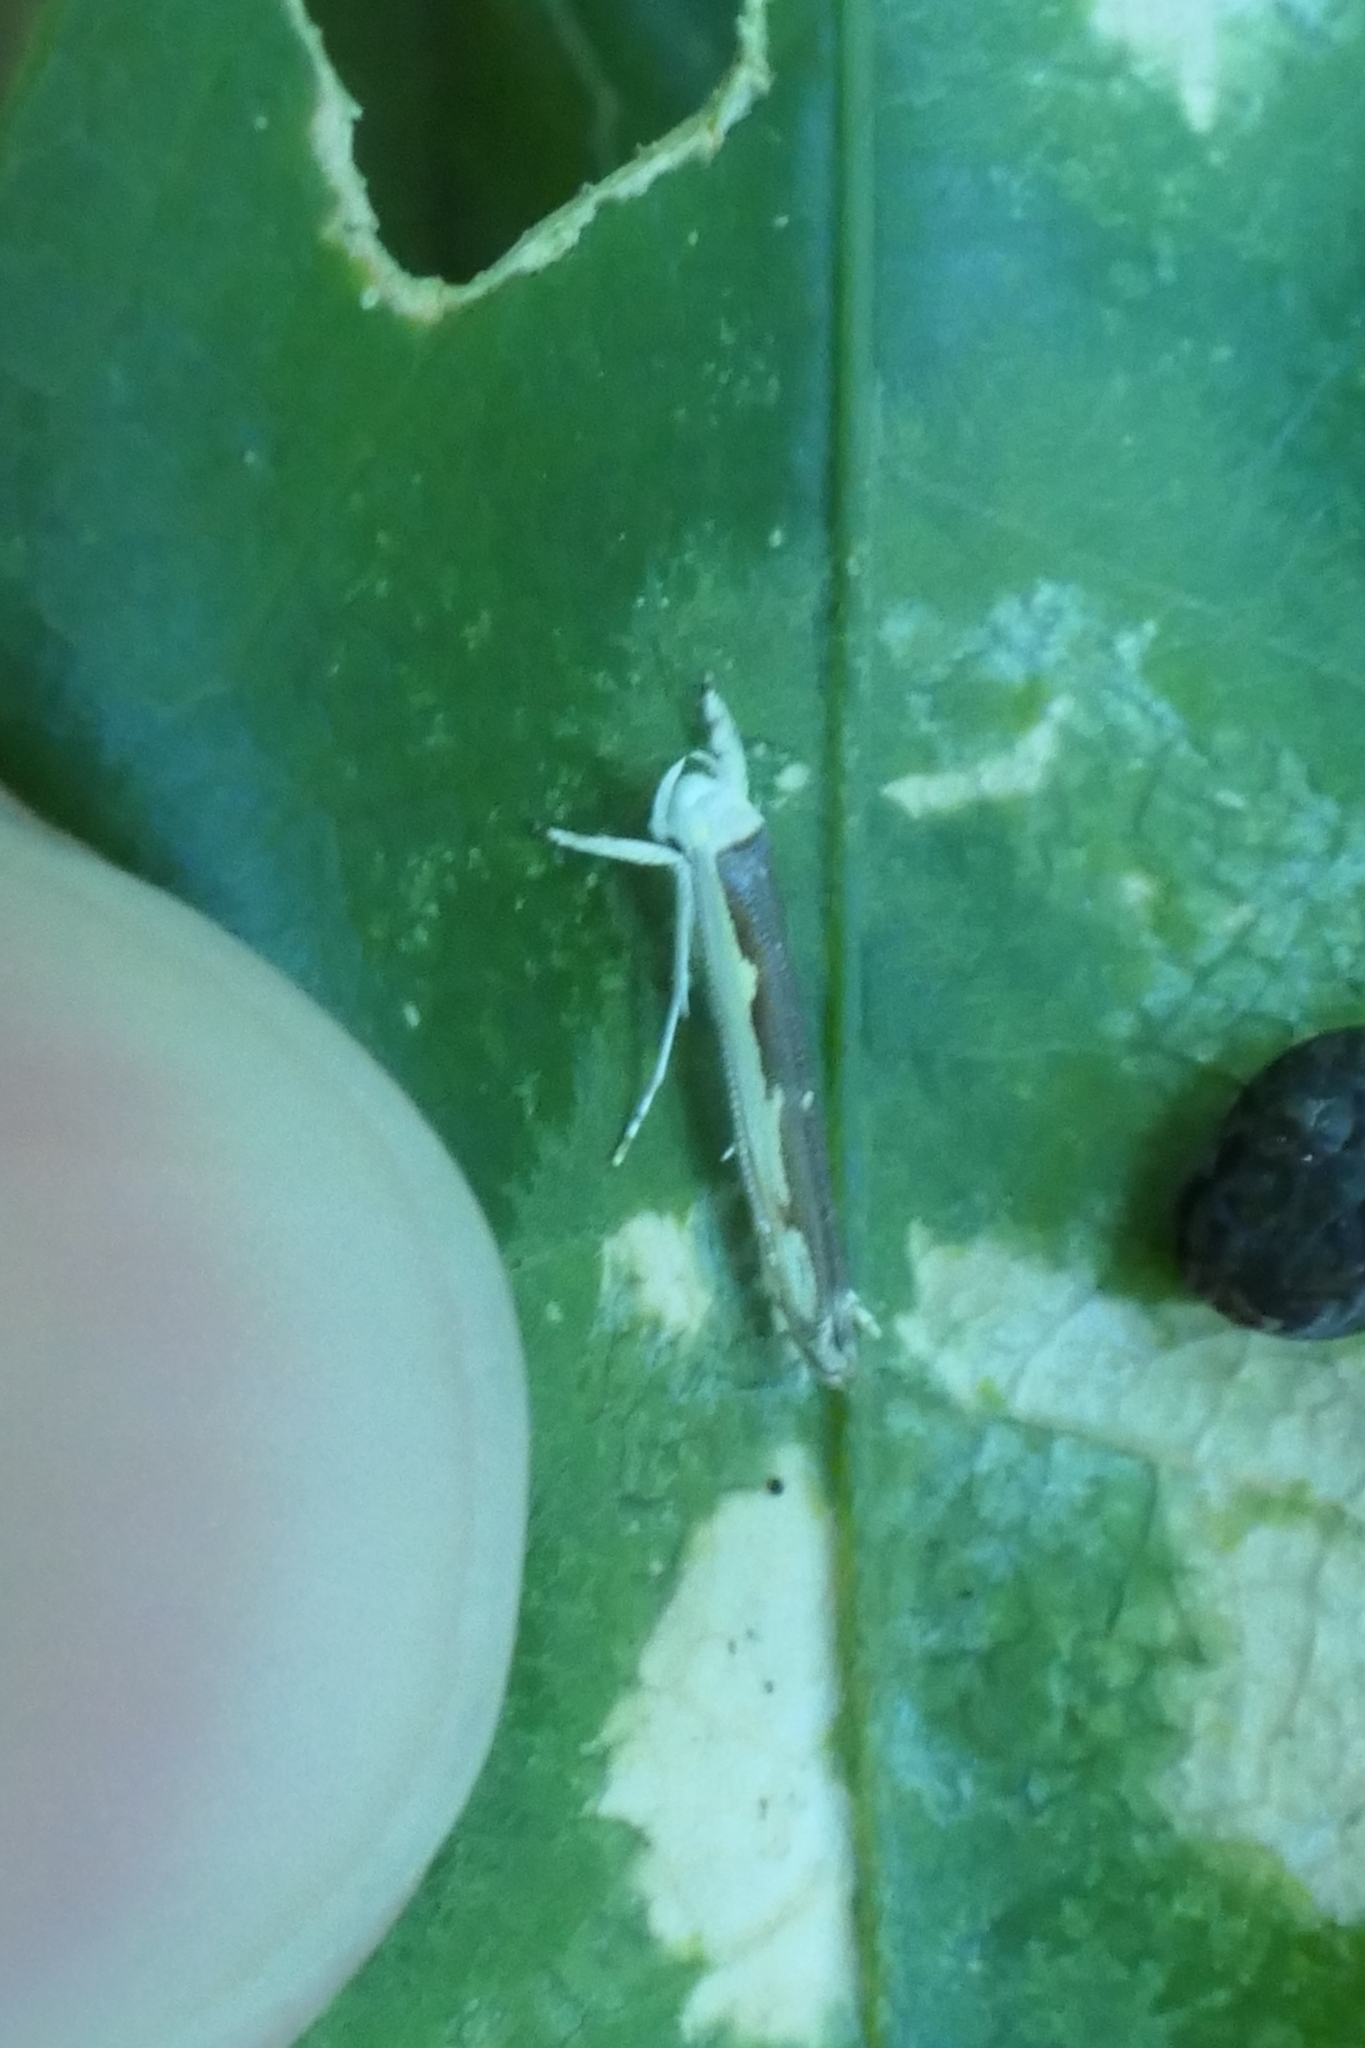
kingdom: Animalia
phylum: Arthropoda
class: Insecta
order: Lepidoptera
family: Roeslerstammiidae
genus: Vanicela
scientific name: Vanicela disjunctella
